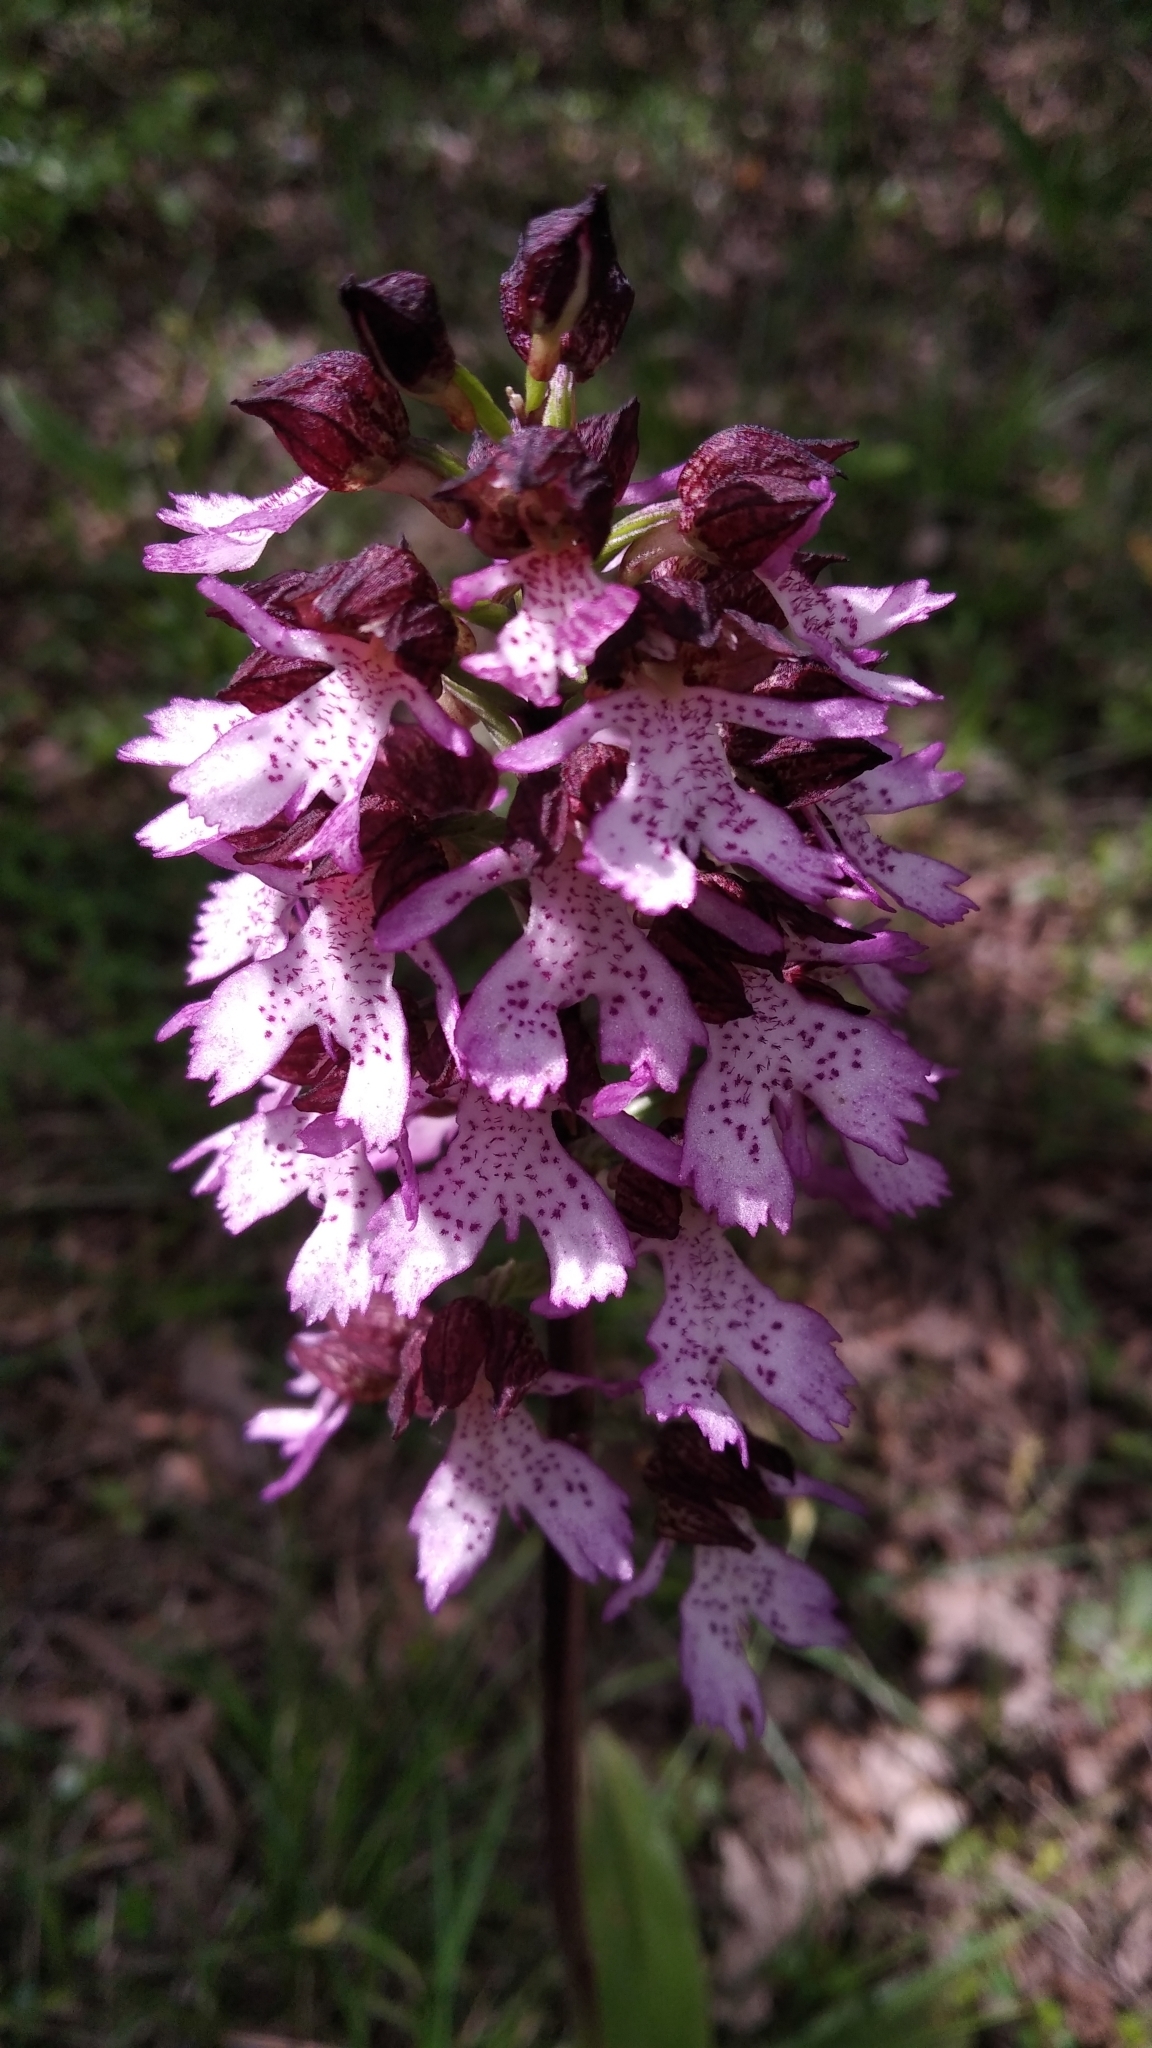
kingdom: Plantae
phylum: Tracheophyta
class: Liliopsida
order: Asparagales
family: Orchidaceae
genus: Orchis
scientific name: Orchis purpurea
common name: Lady orchid
